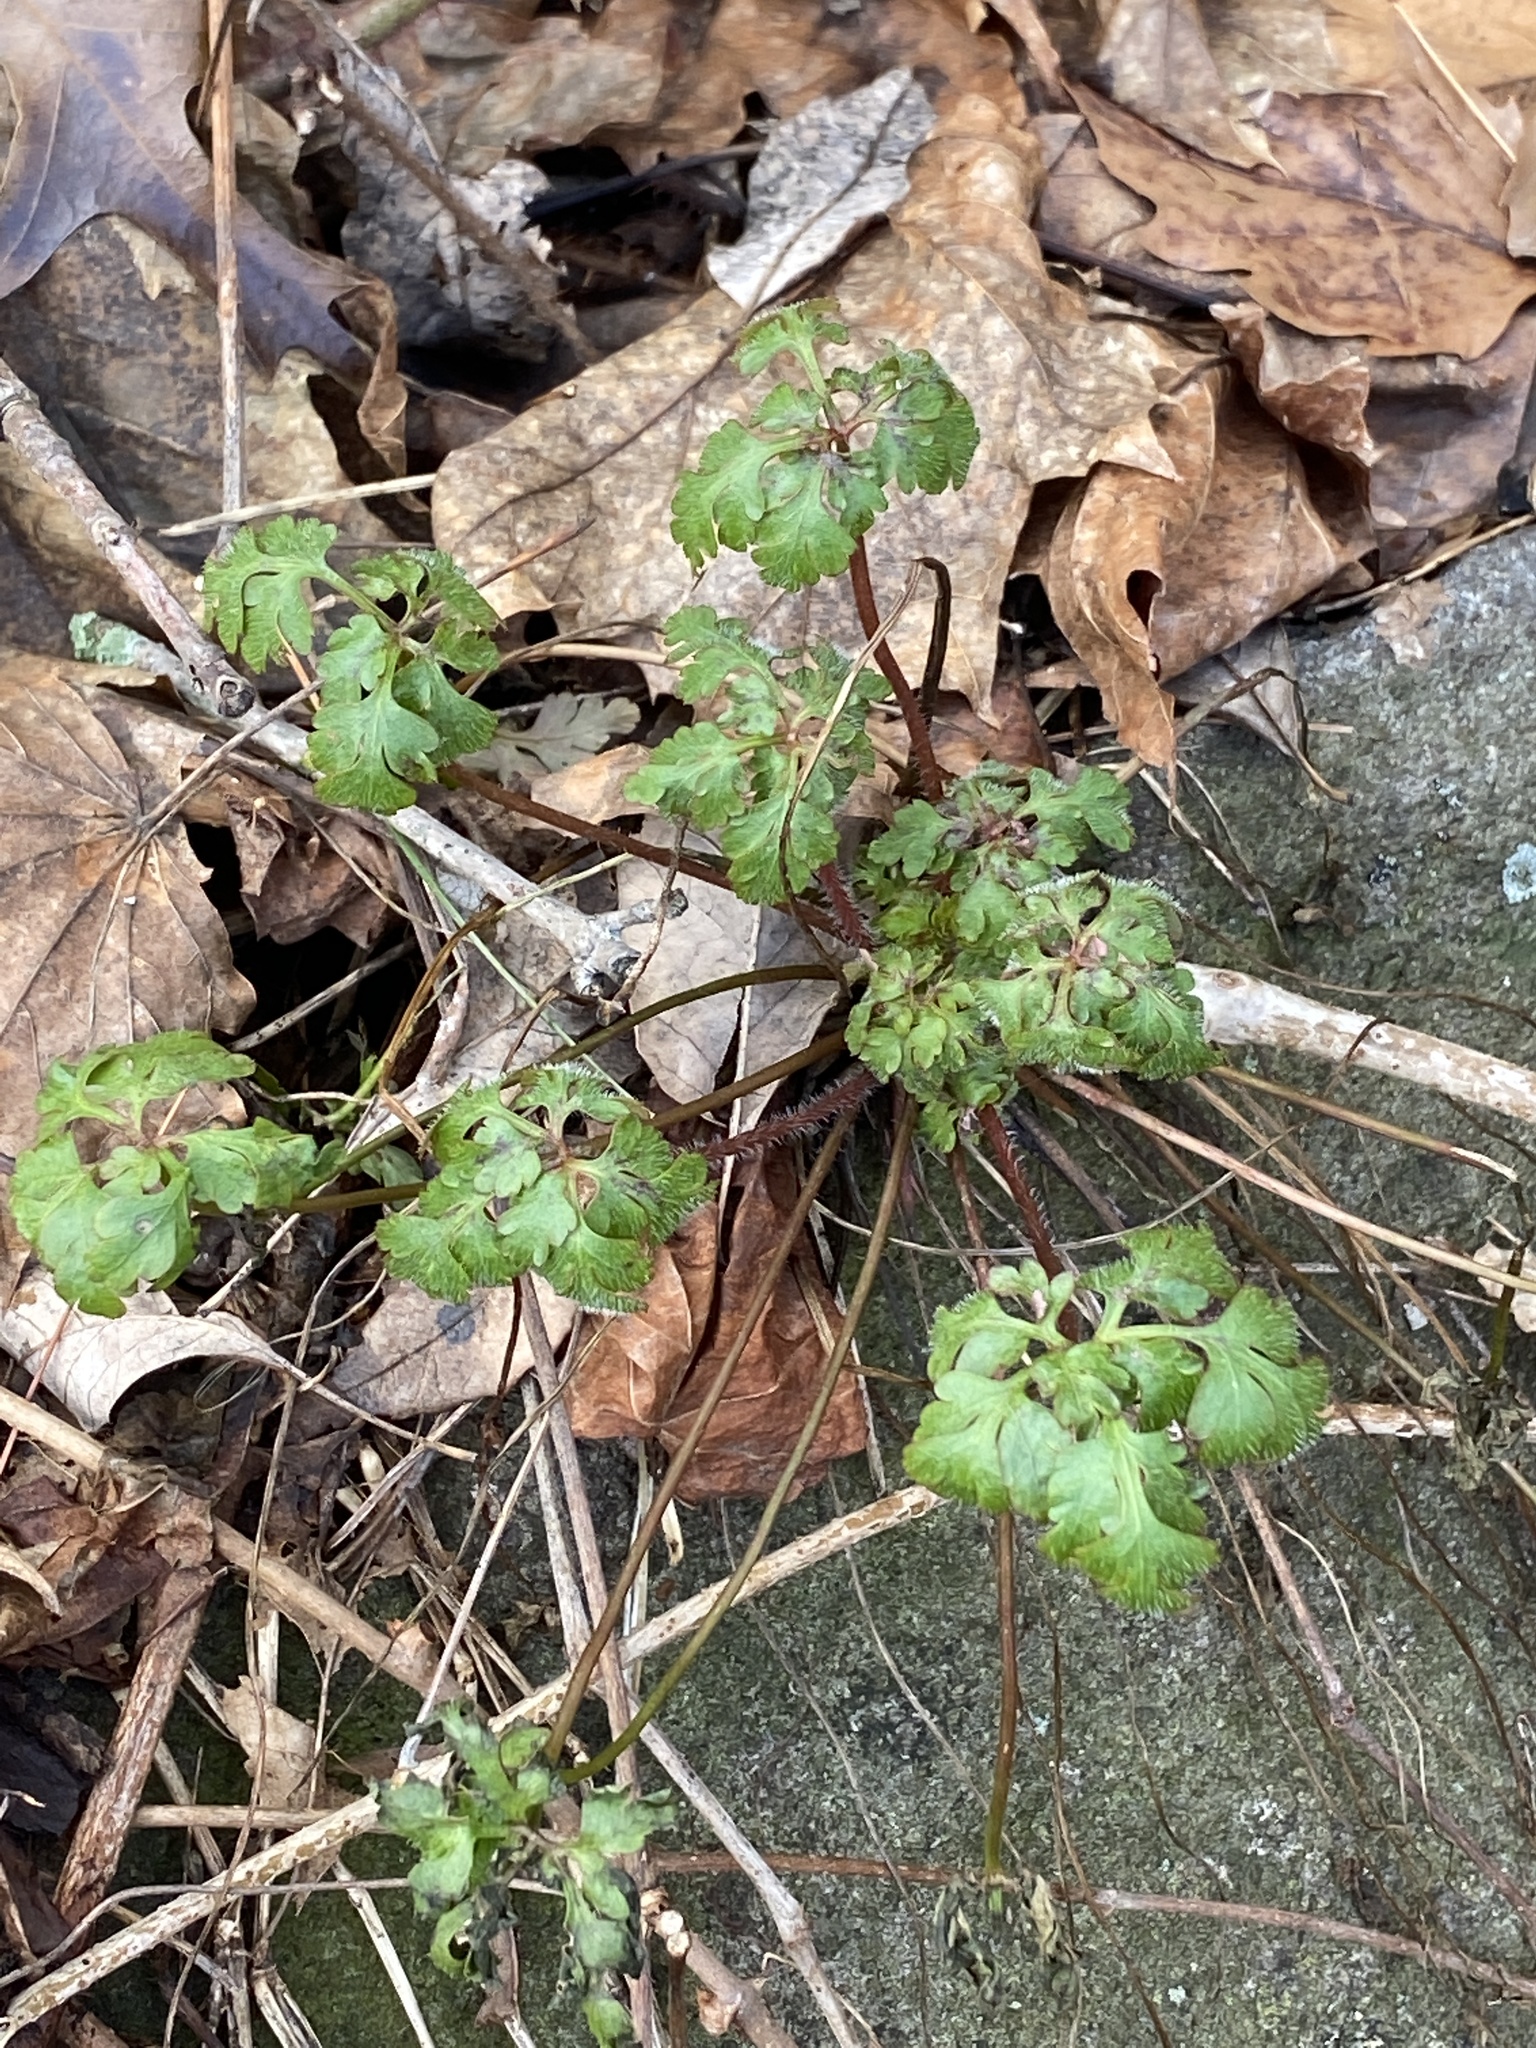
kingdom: Plantae
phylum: Tracheophyta
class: Magnoliopsida
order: Geraniales
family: Geraniaceae
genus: Geranium
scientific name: Geranium robertianum
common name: Herb-robert
